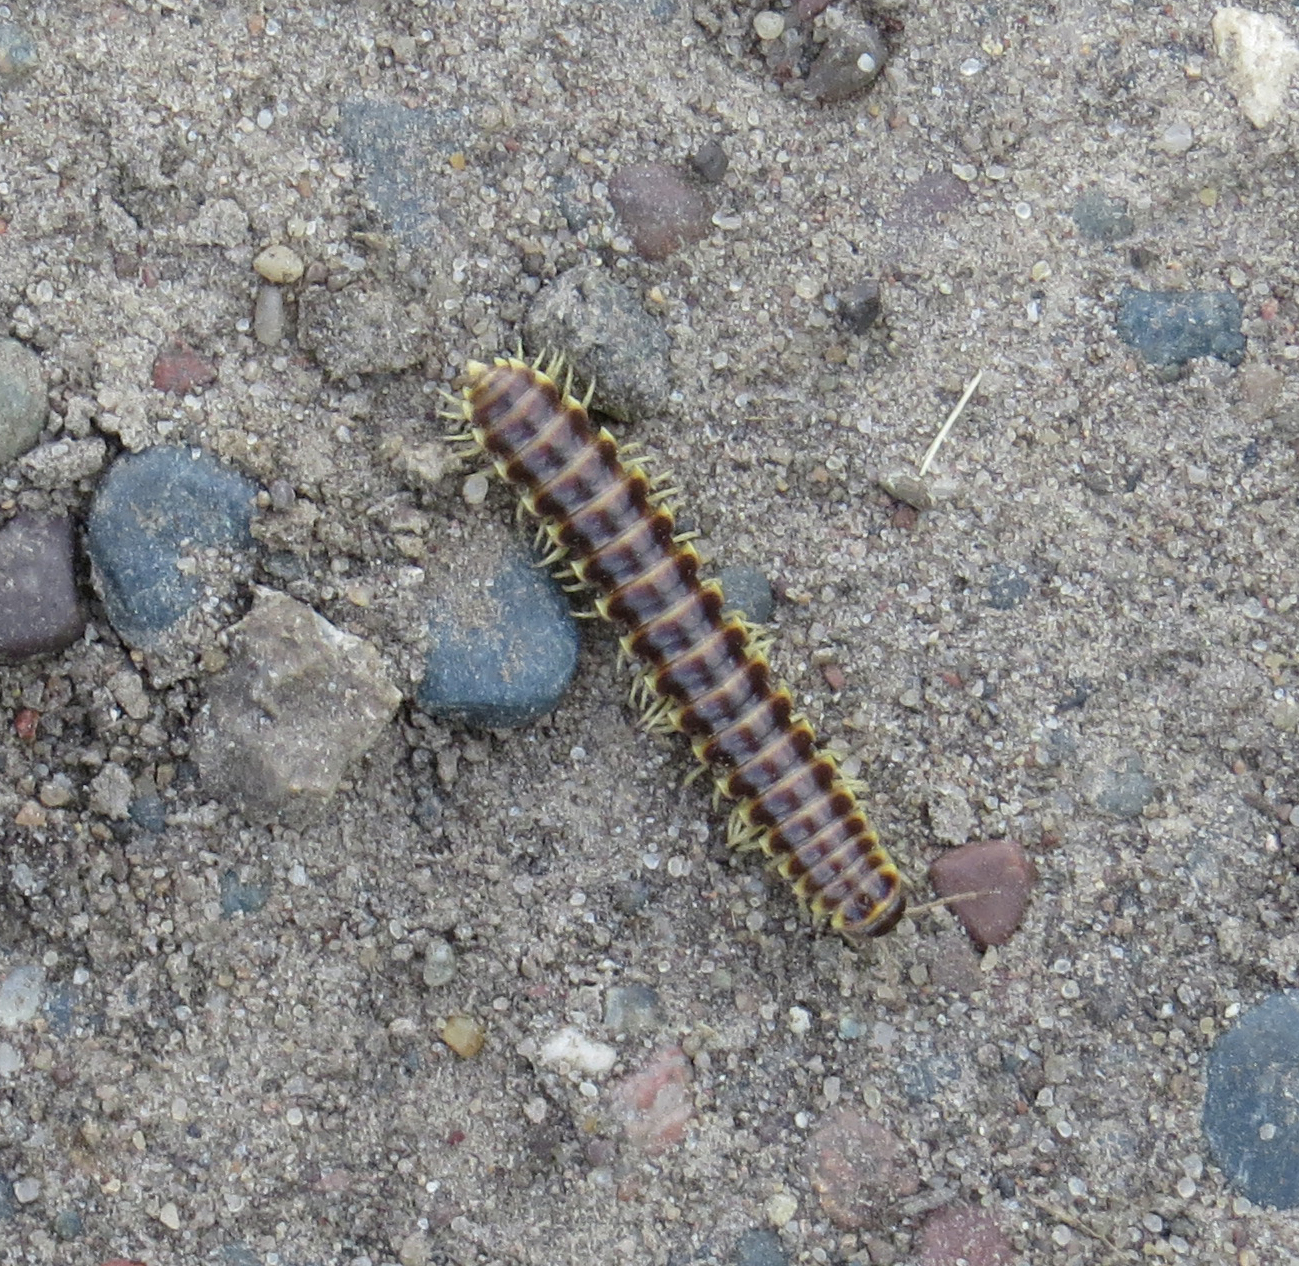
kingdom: Animalia
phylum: Arthropoda
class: Diplopoda
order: Polydesmida
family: Xystodesmidae
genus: Pleuroloma
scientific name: Pleuroloma flavipes
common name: Yellow-legged pleuroloma
